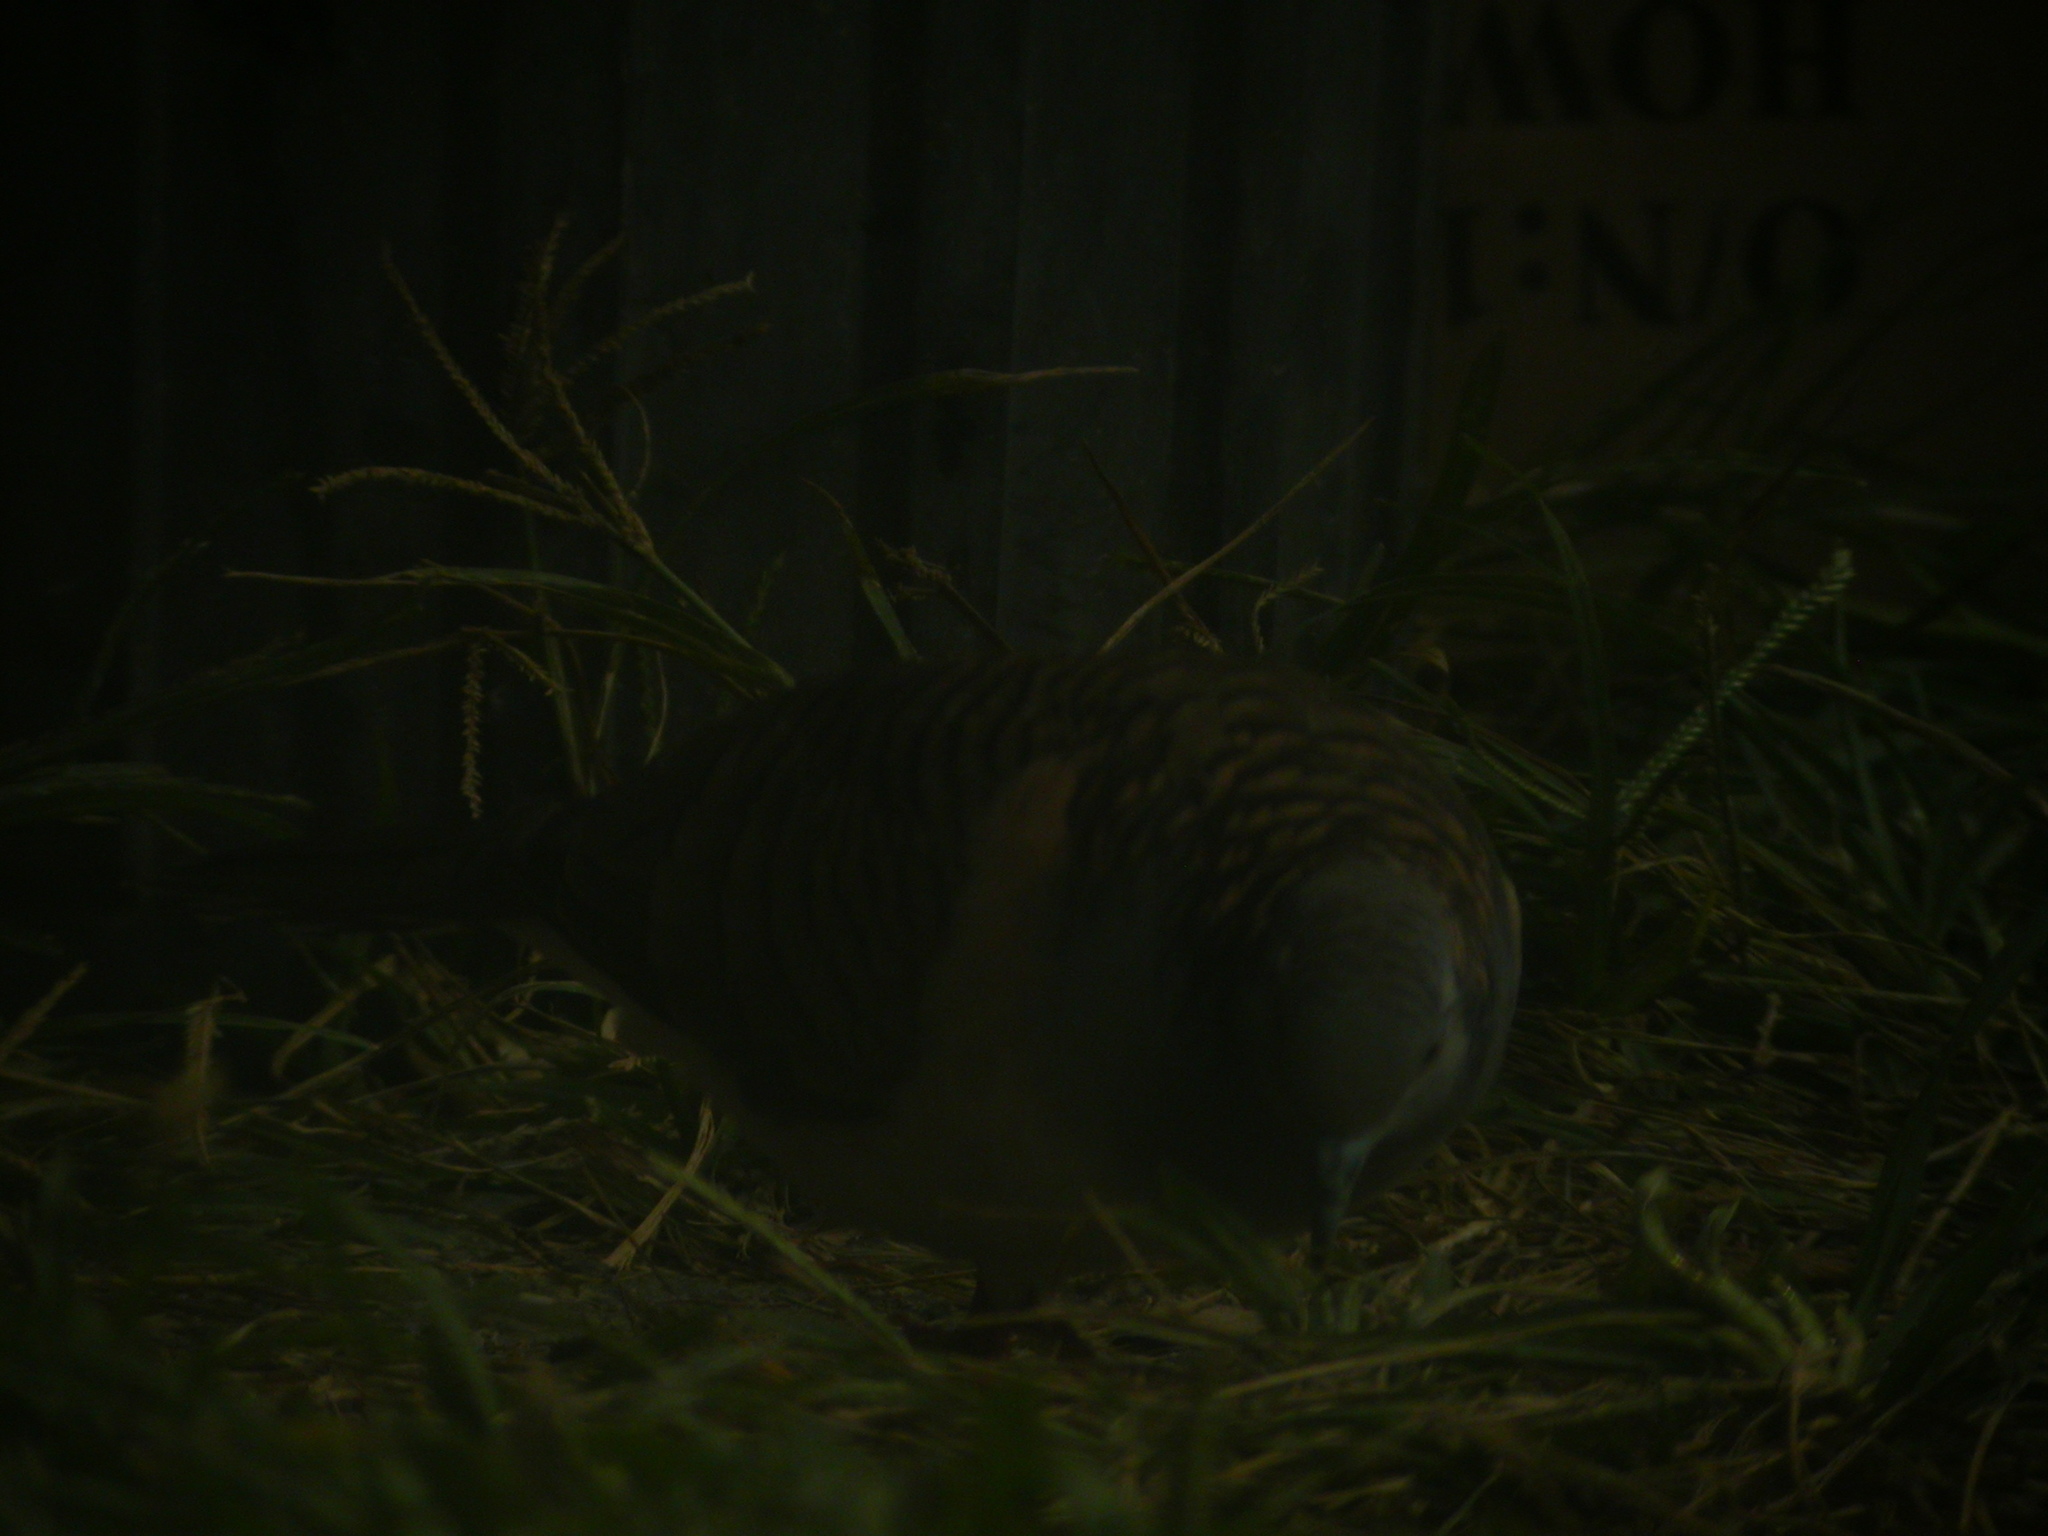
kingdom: Animalia
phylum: Chordata
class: Aves
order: Columbiformes
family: Columbidae
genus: Geopelia
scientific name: Geopelia humeralis
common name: Bar-shouldered dove
